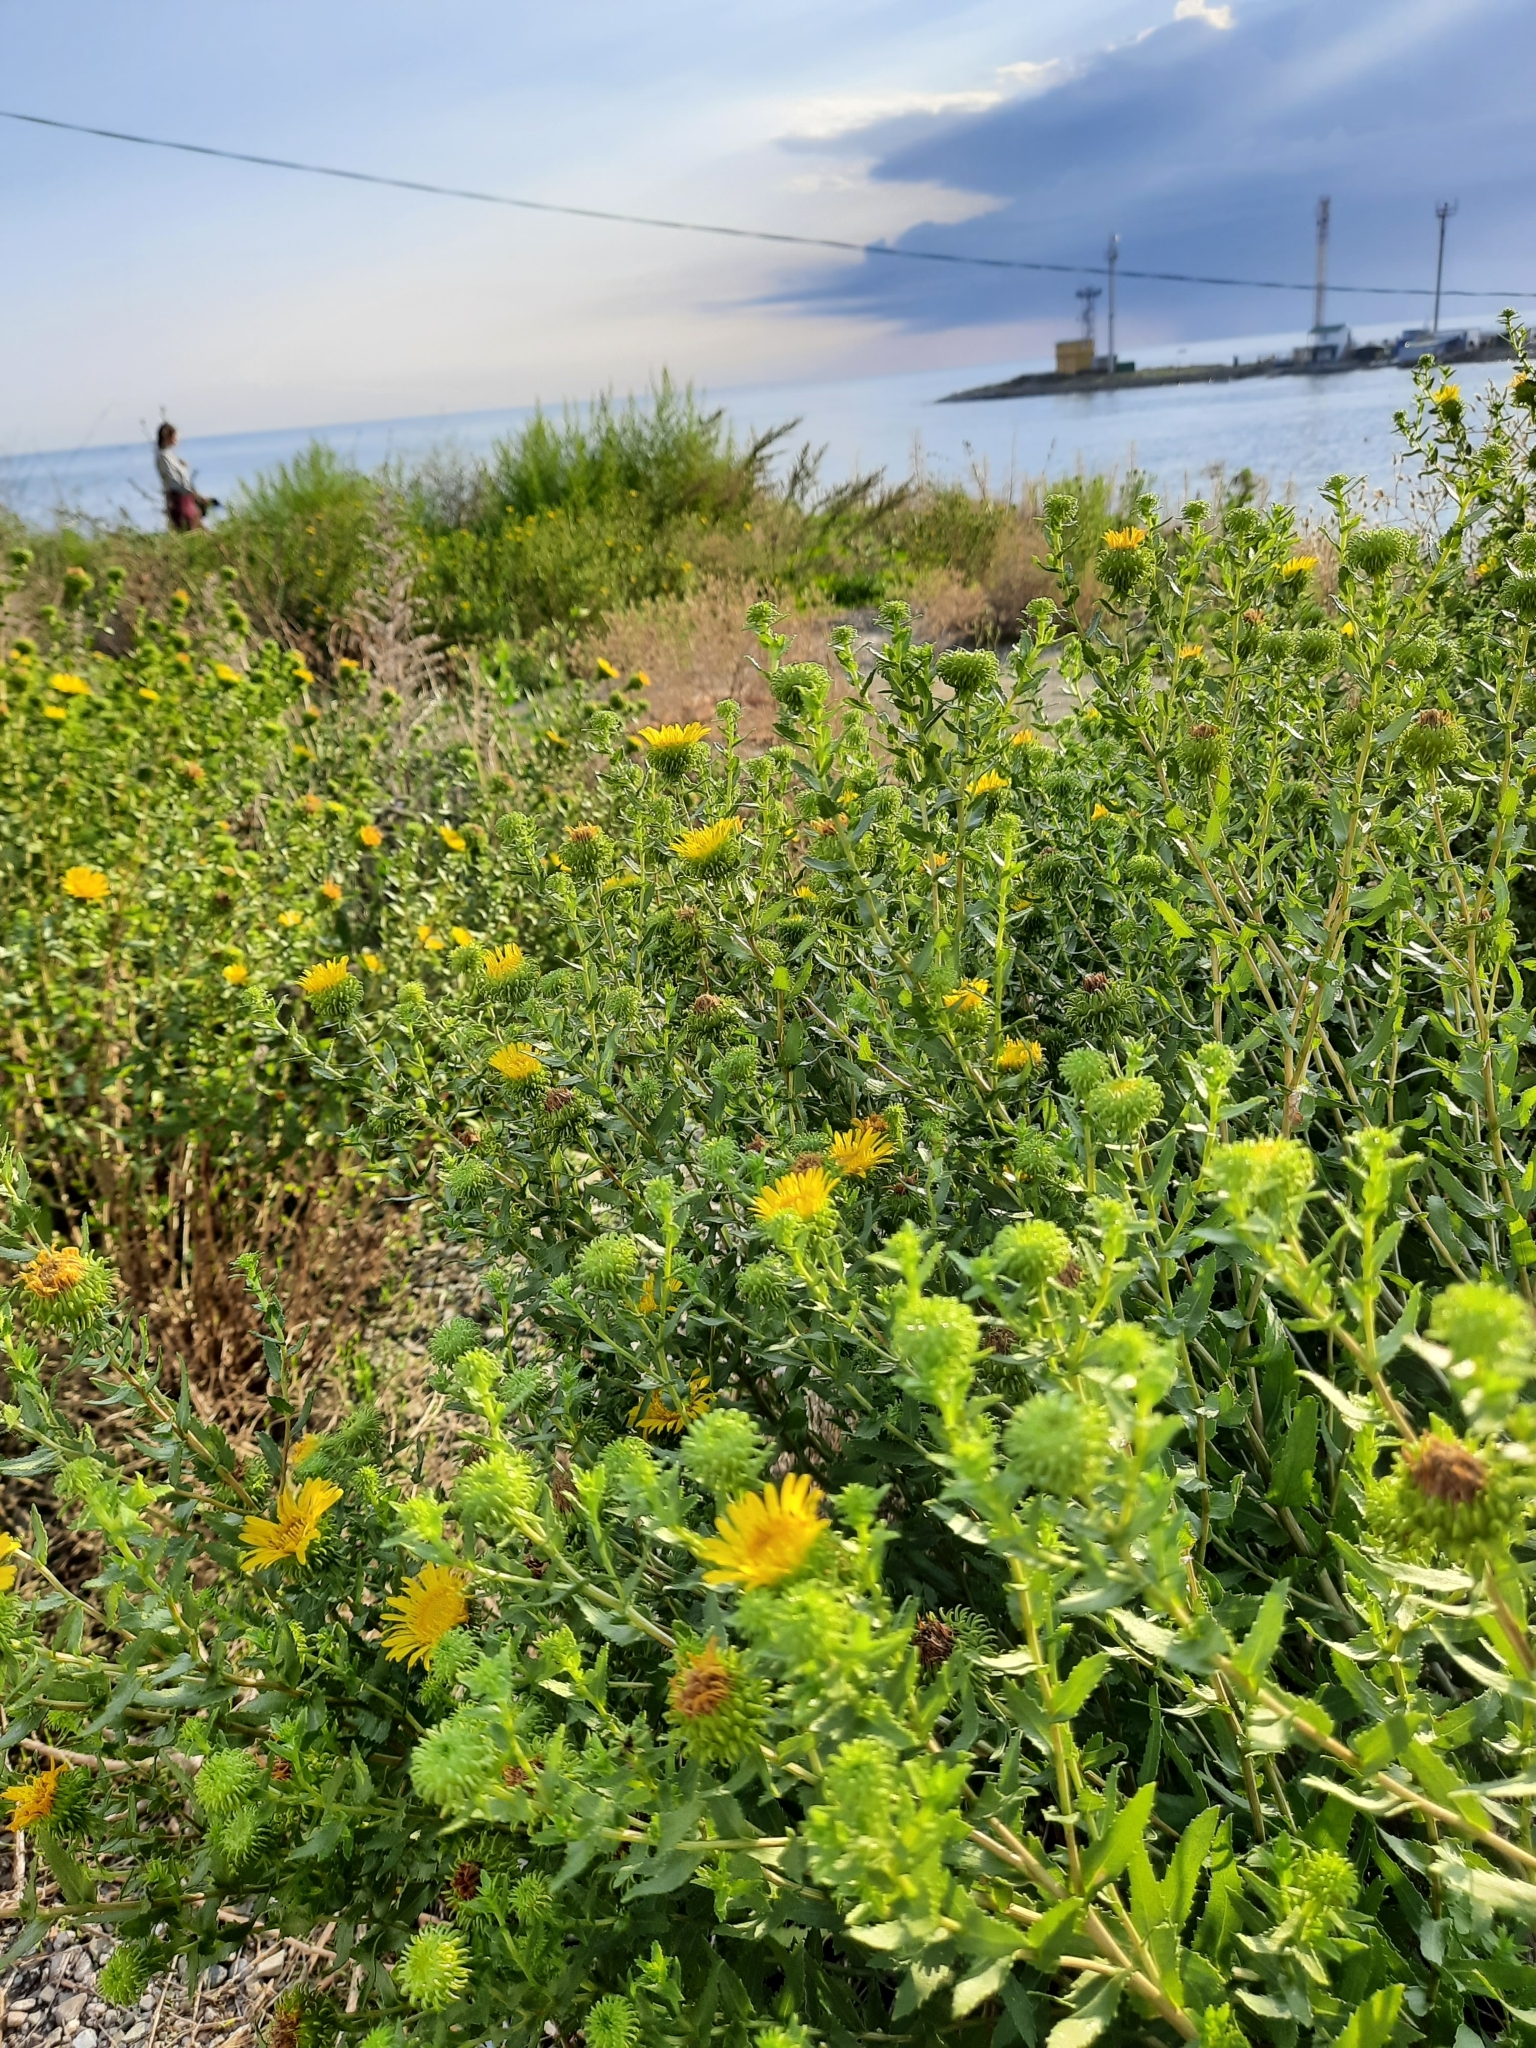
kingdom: Plantae
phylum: Tracheophyta
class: Magnoliopsida
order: Asterales
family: Asteraceae
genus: Grindelia
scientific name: Grindelia squarrosa
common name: Curly-cup gumweed
